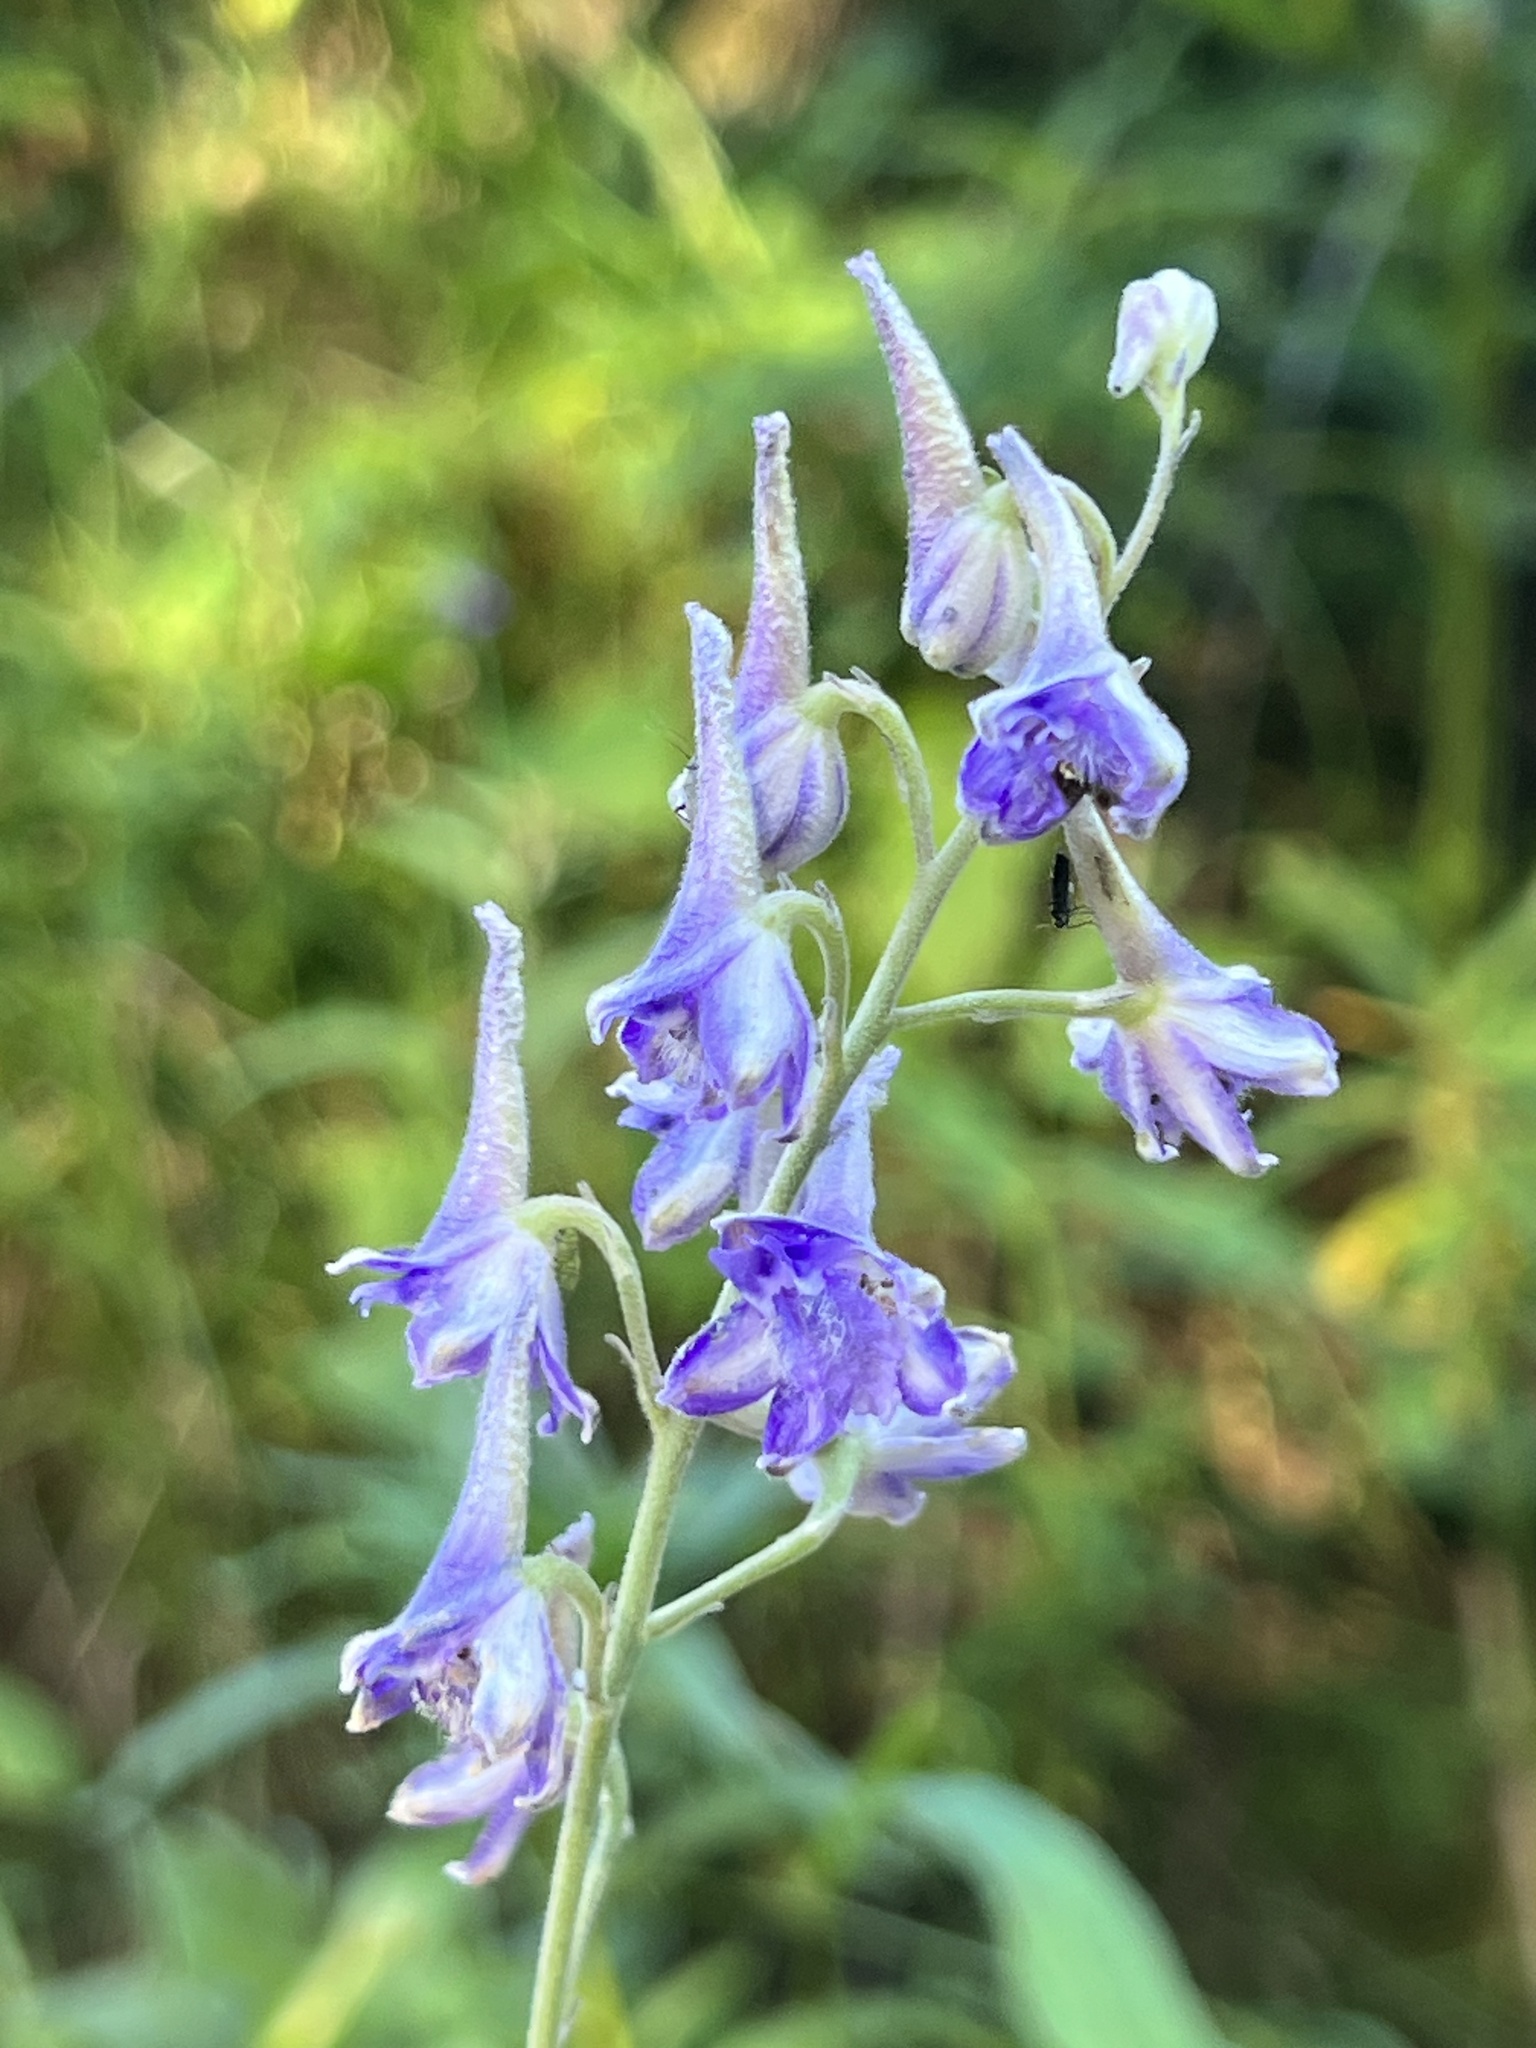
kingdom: Plantae
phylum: Tracheophyta
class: Magnoliopsida
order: Ranunculales
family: Ranunculaceae
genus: Delphinium
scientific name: Delphinium occidentale
